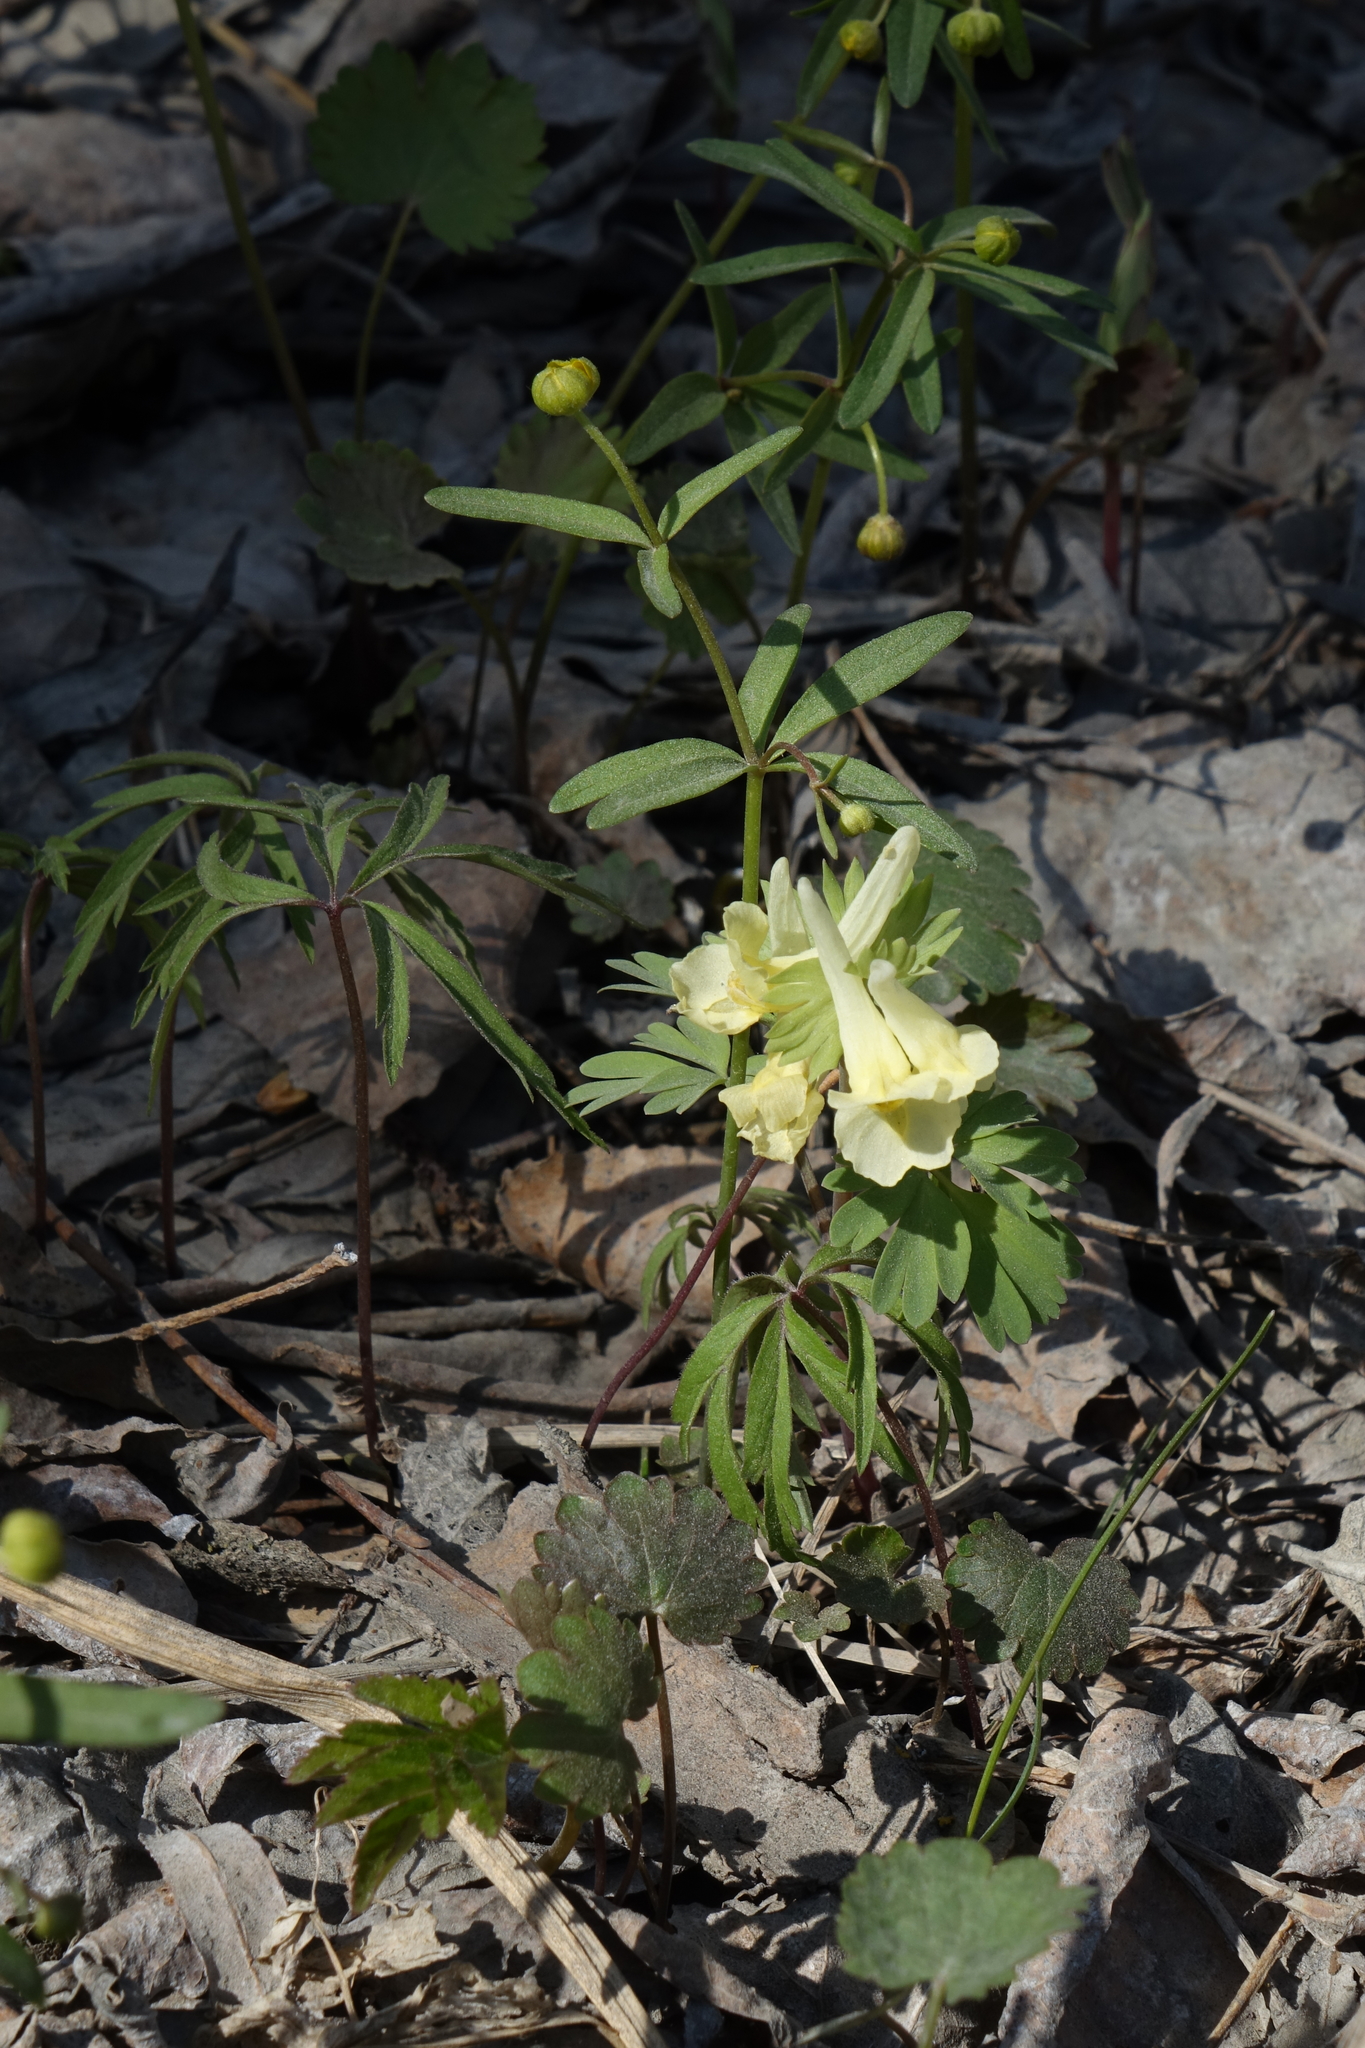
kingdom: Plantae
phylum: Tracheophyta
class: Magnoliopsida
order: Ranunculales
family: Papaveraceae
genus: Corydalis
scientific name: Corydalis bracteata
